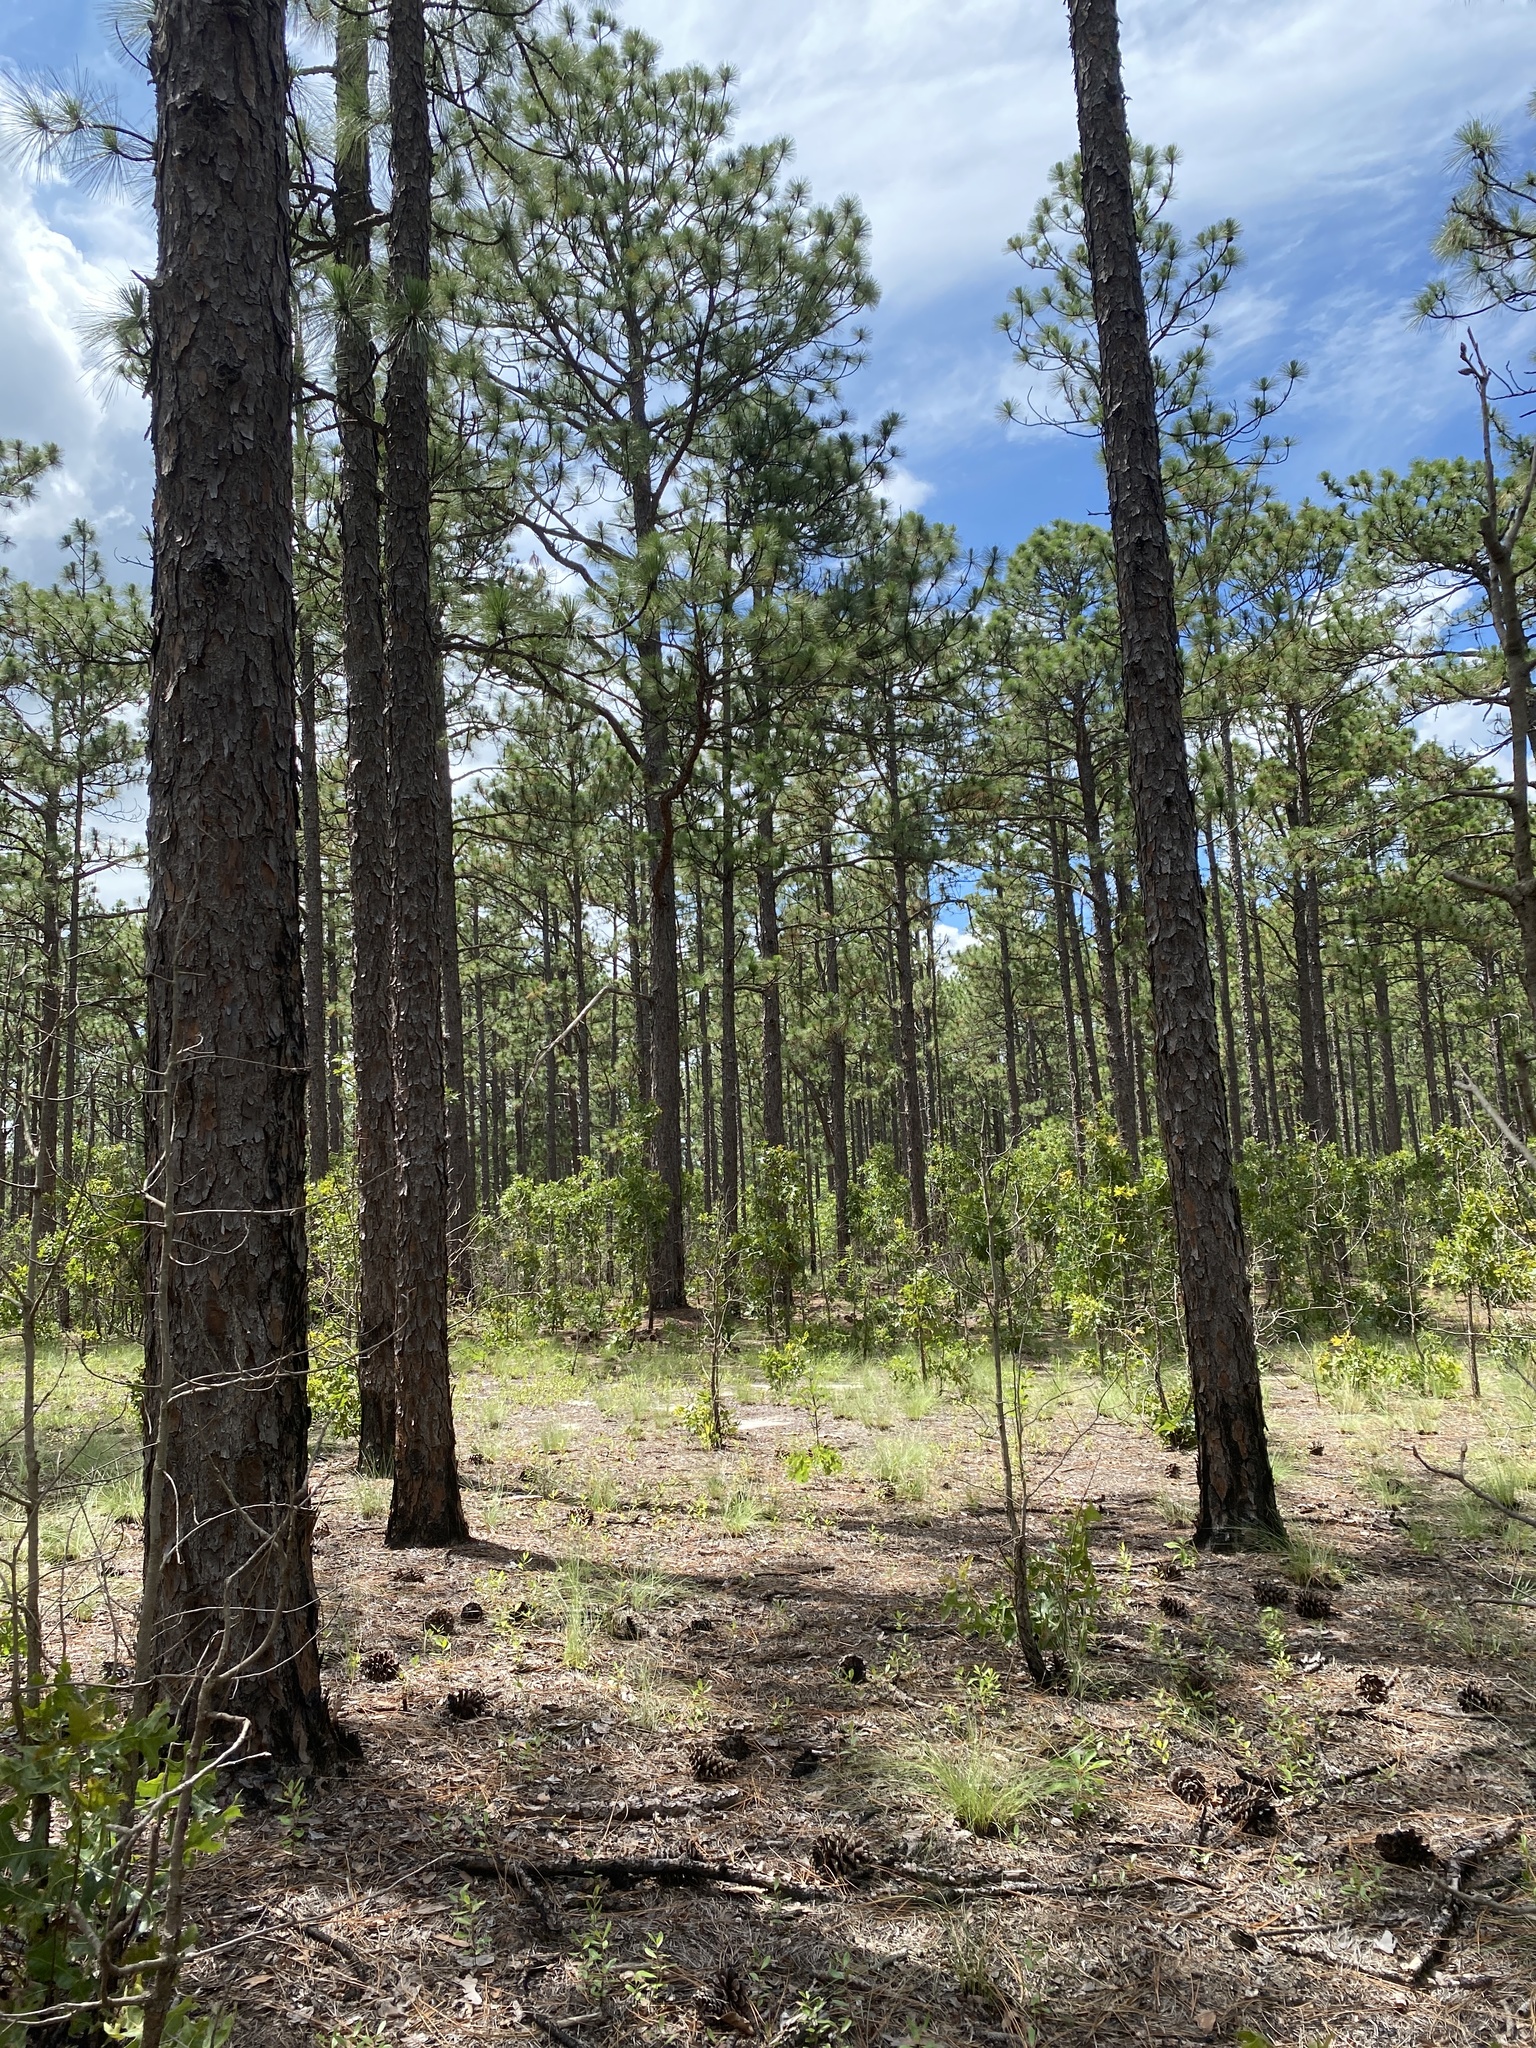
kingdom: Plantae
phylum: Tracheophyta
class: Pinopsida
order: Pinales
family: Pinaceae
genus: Pinus
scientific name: Pinus palustris
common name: Longleaf pine
